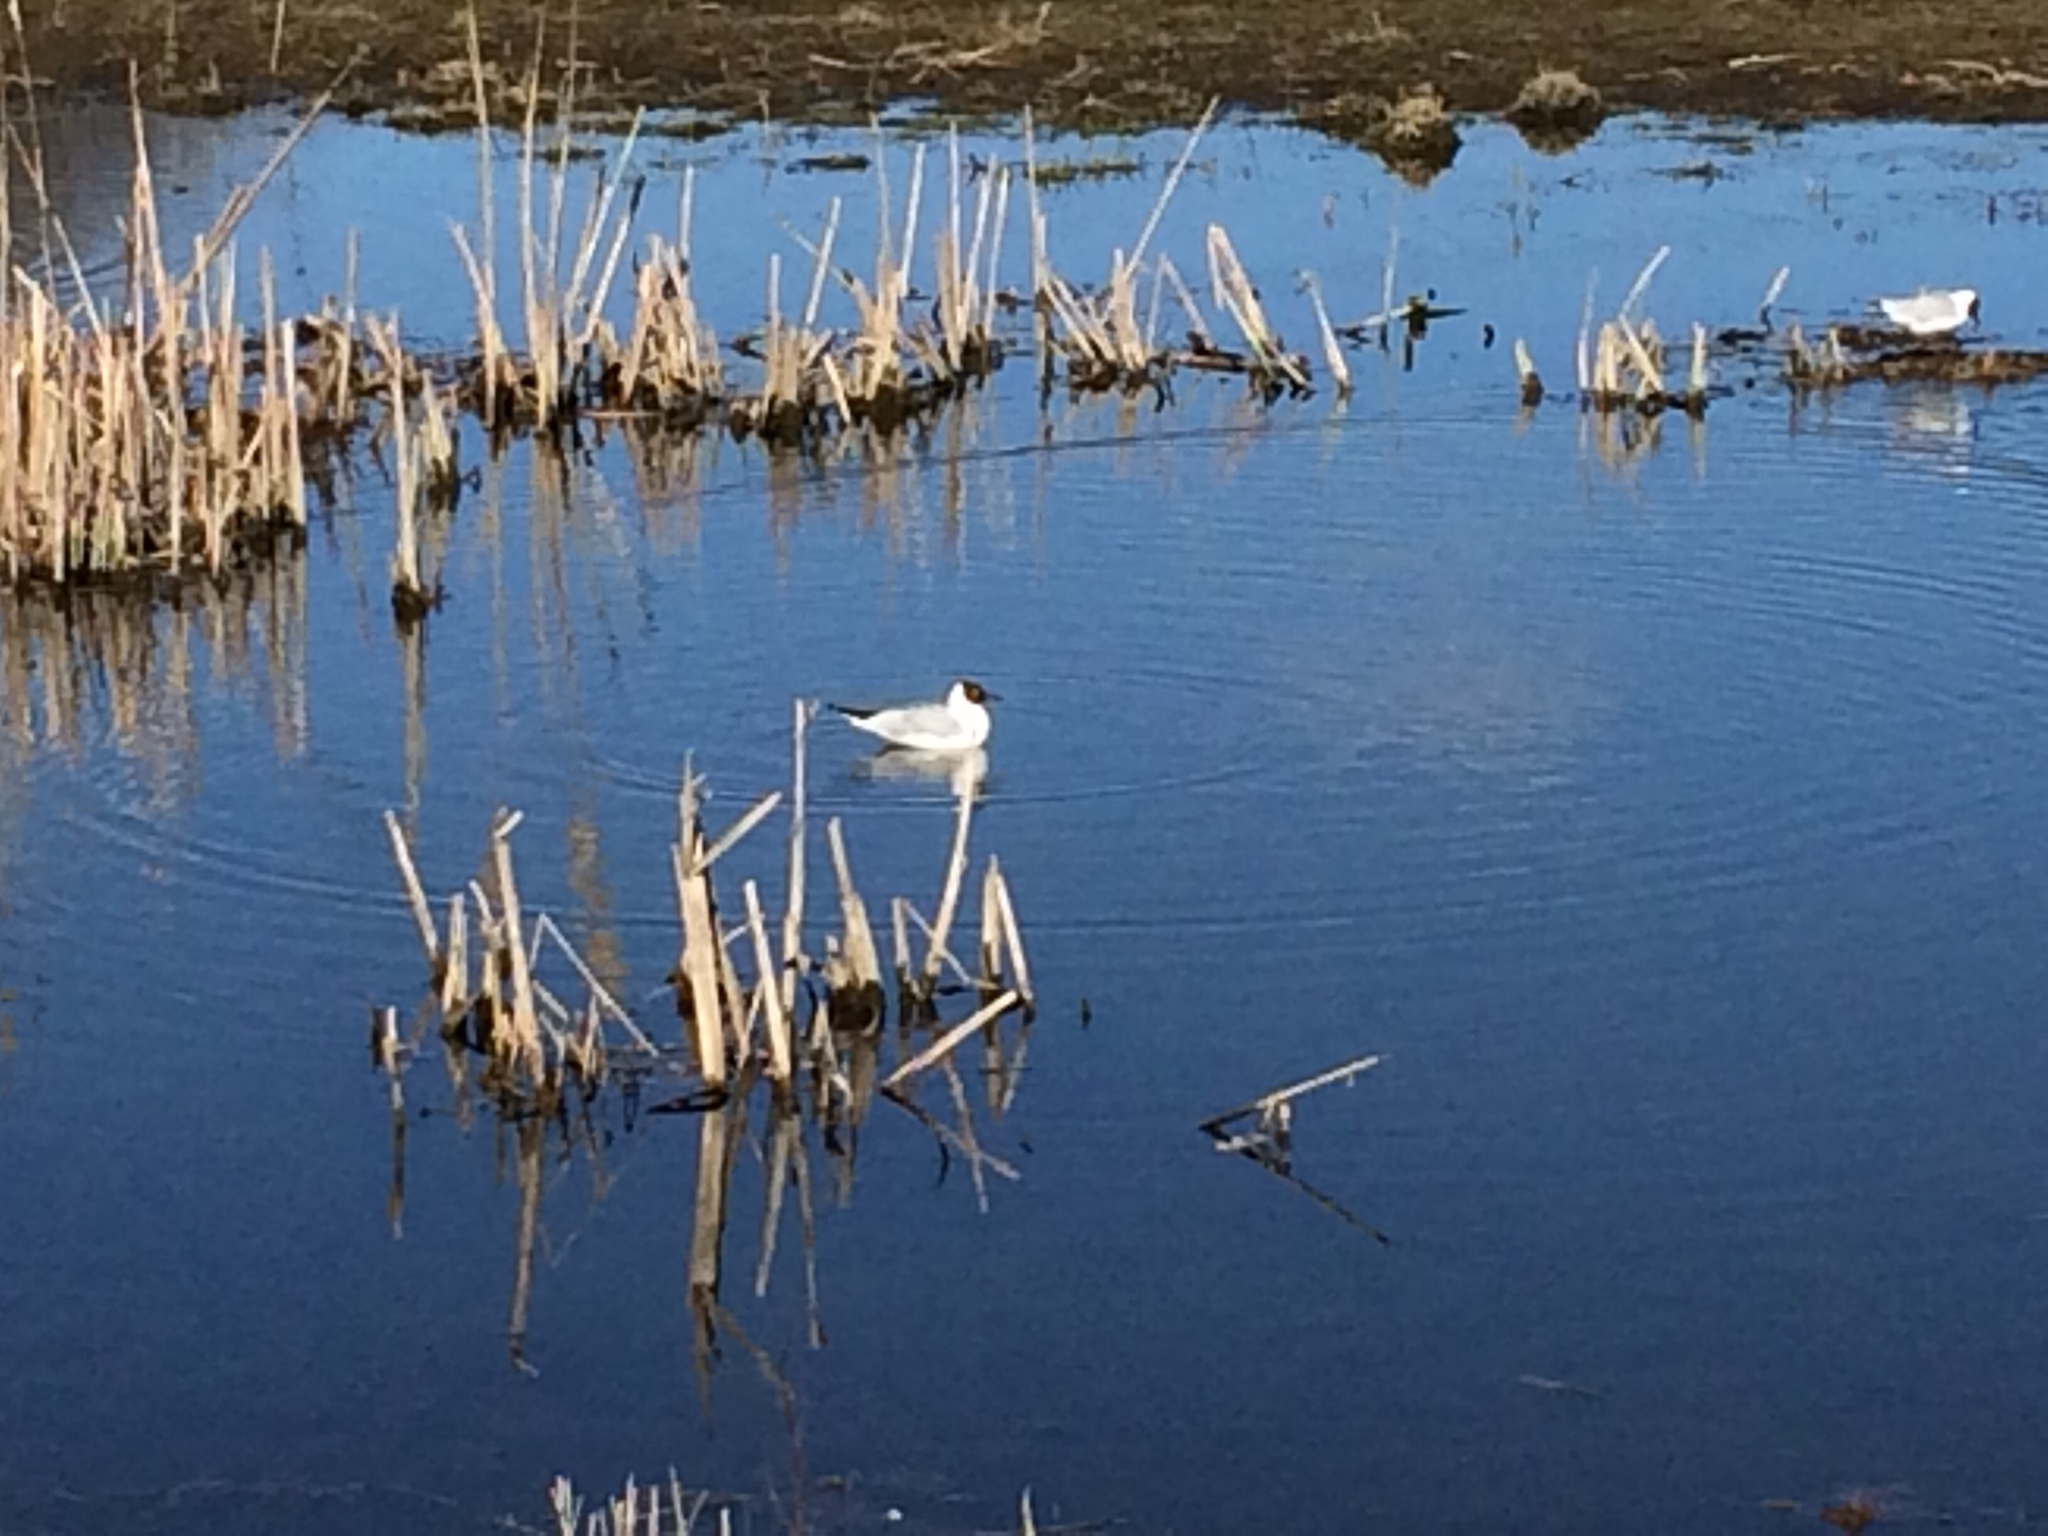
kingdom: Animalia
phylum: Chordata
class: Aves
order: Charadriiformes
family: Laridae
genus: Chroicocephalus
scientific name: Chroicocephalus ridibundus
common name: Black-headed gull
